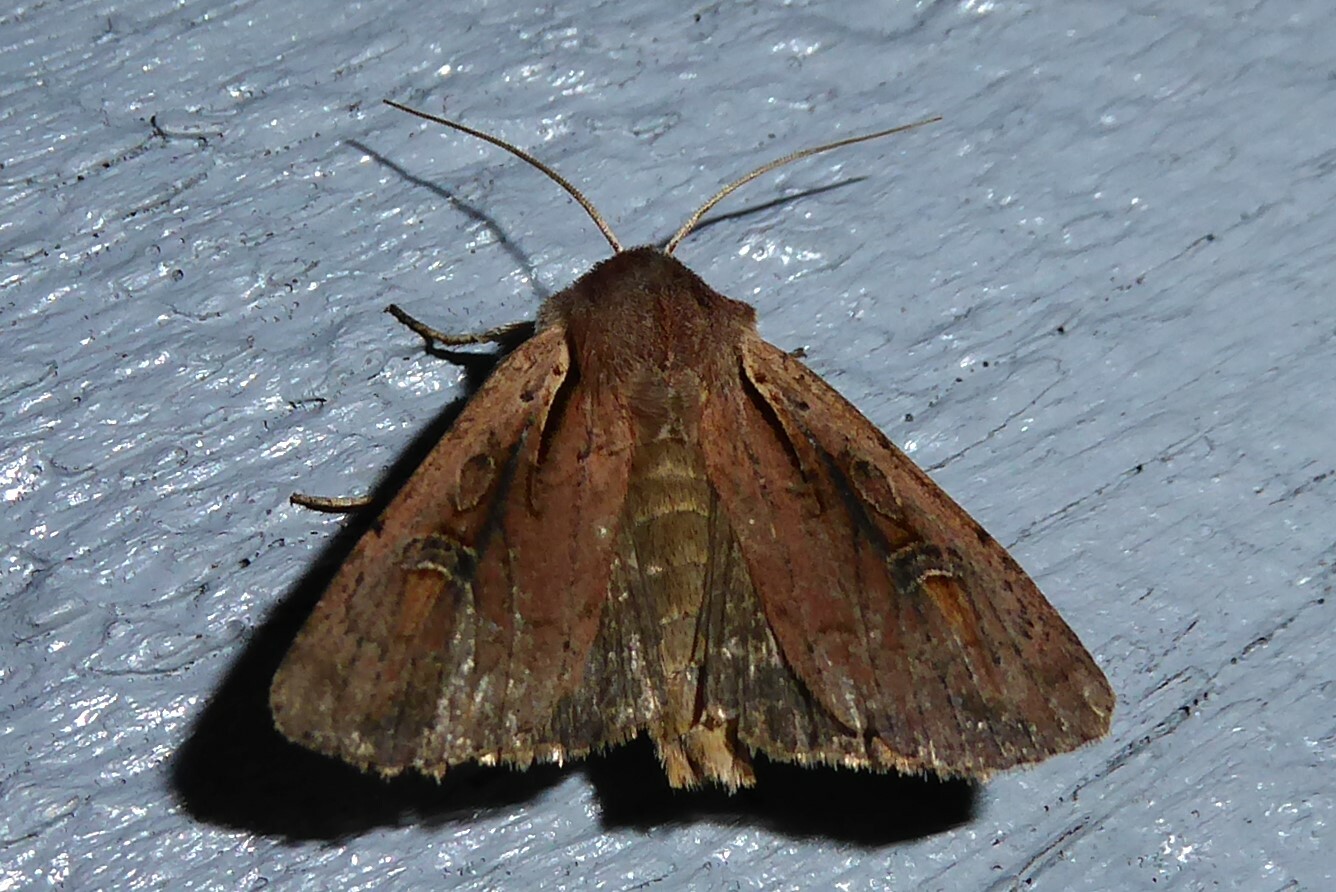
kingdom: Animalia
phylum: Arthropoda
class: Insecta
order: Lepidoptera
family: Noctuidae
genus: Ichneutica
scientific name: Ichneutica atristriga
